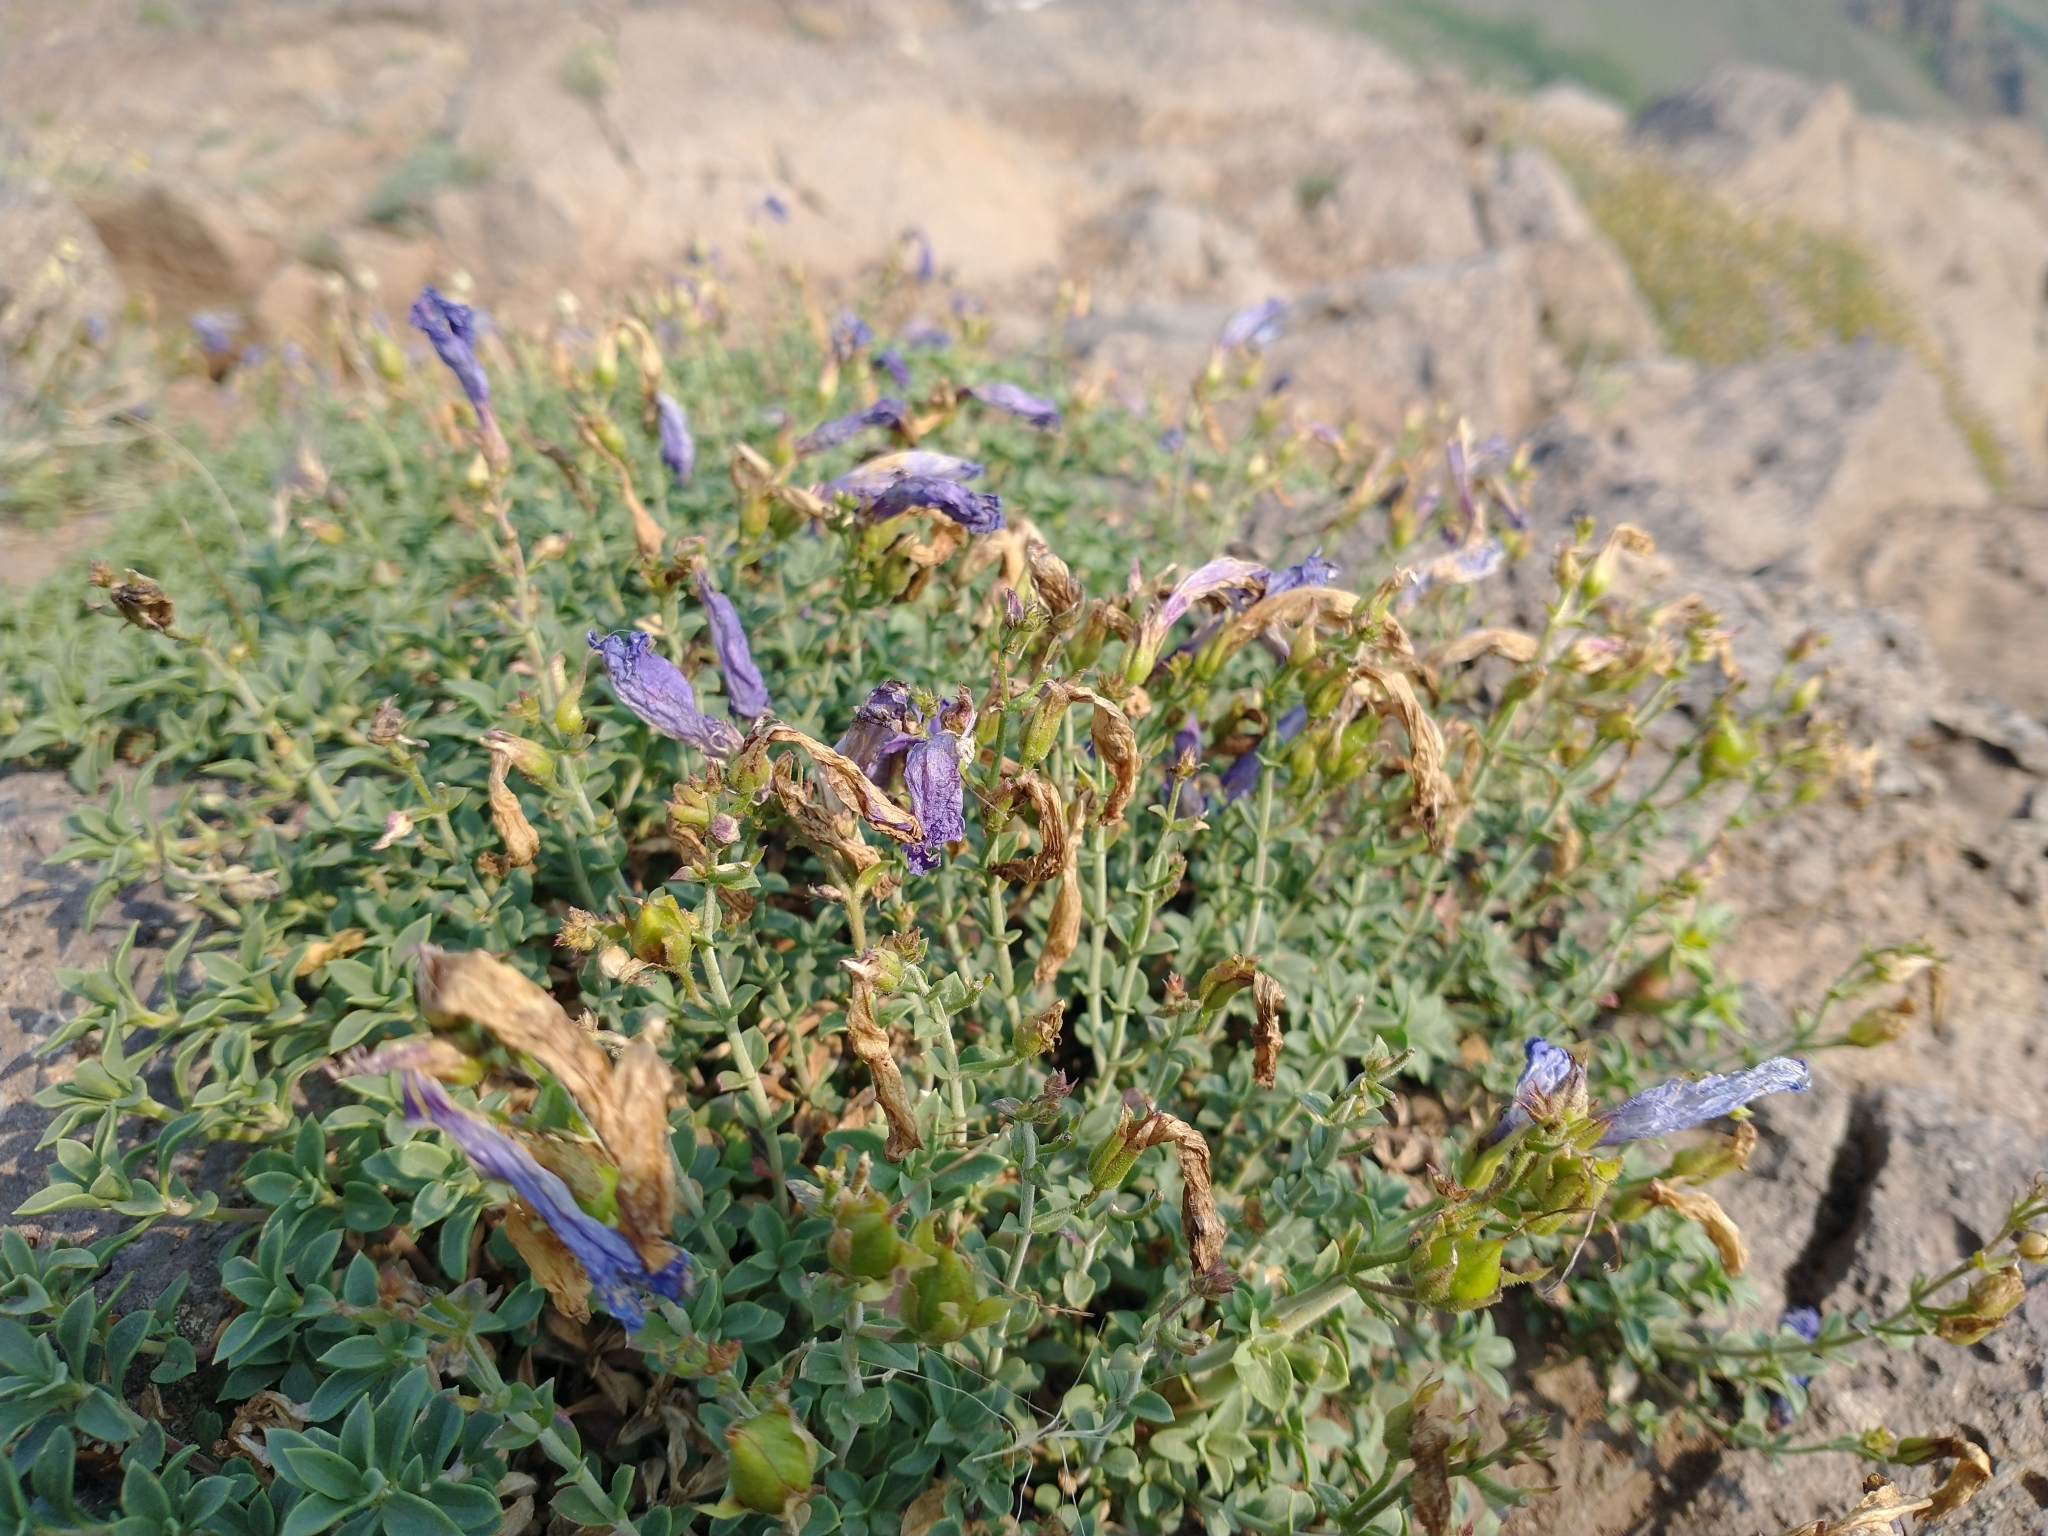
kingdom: Plantae
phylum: Tracheophyta
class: Magnoliopsida
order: Lamiales
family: Plantaginaceae
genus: Penstemon
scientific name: Penstemon davidsonii
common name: Davidson's penstemon
